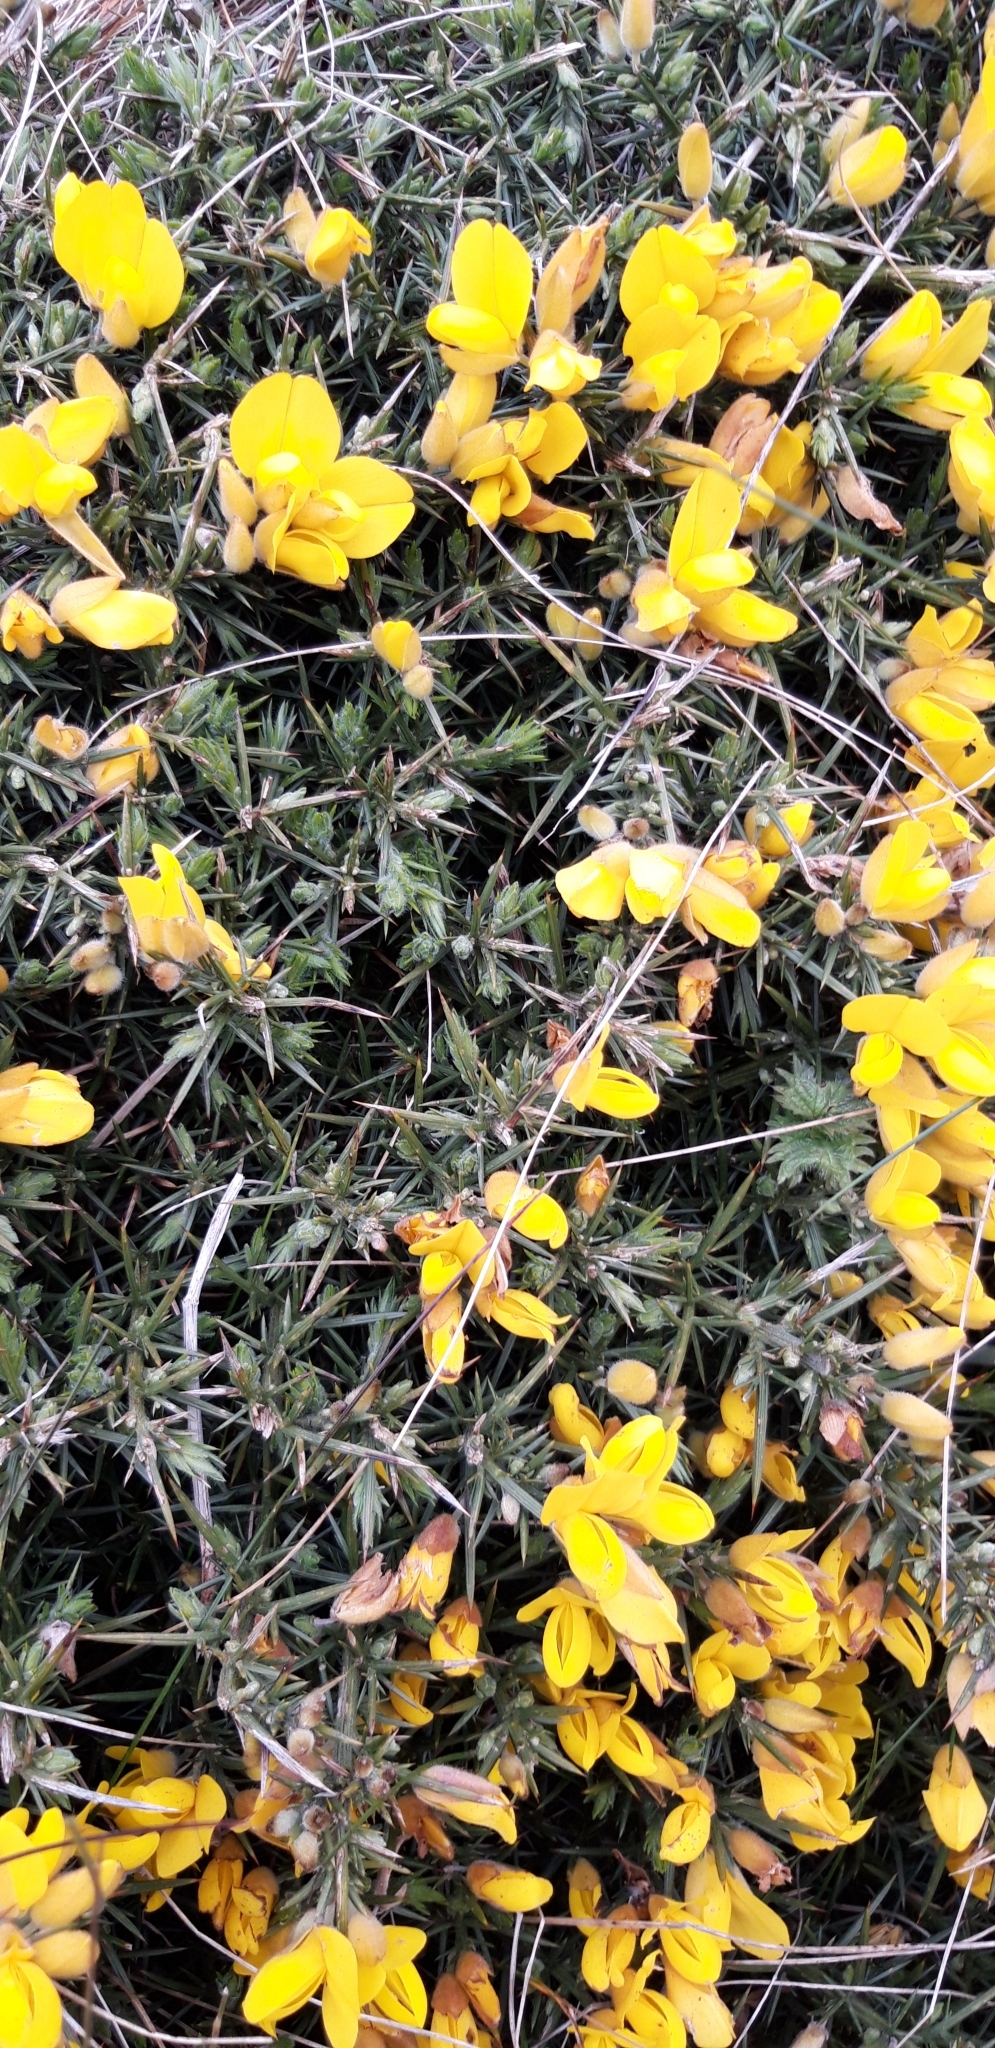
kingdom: Plantae
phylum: Tracheophyta
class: Magnoliopsida
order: Fabales
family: Fabaceae
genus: Ulex
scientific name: Ulex europaeus
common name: Common gorse
